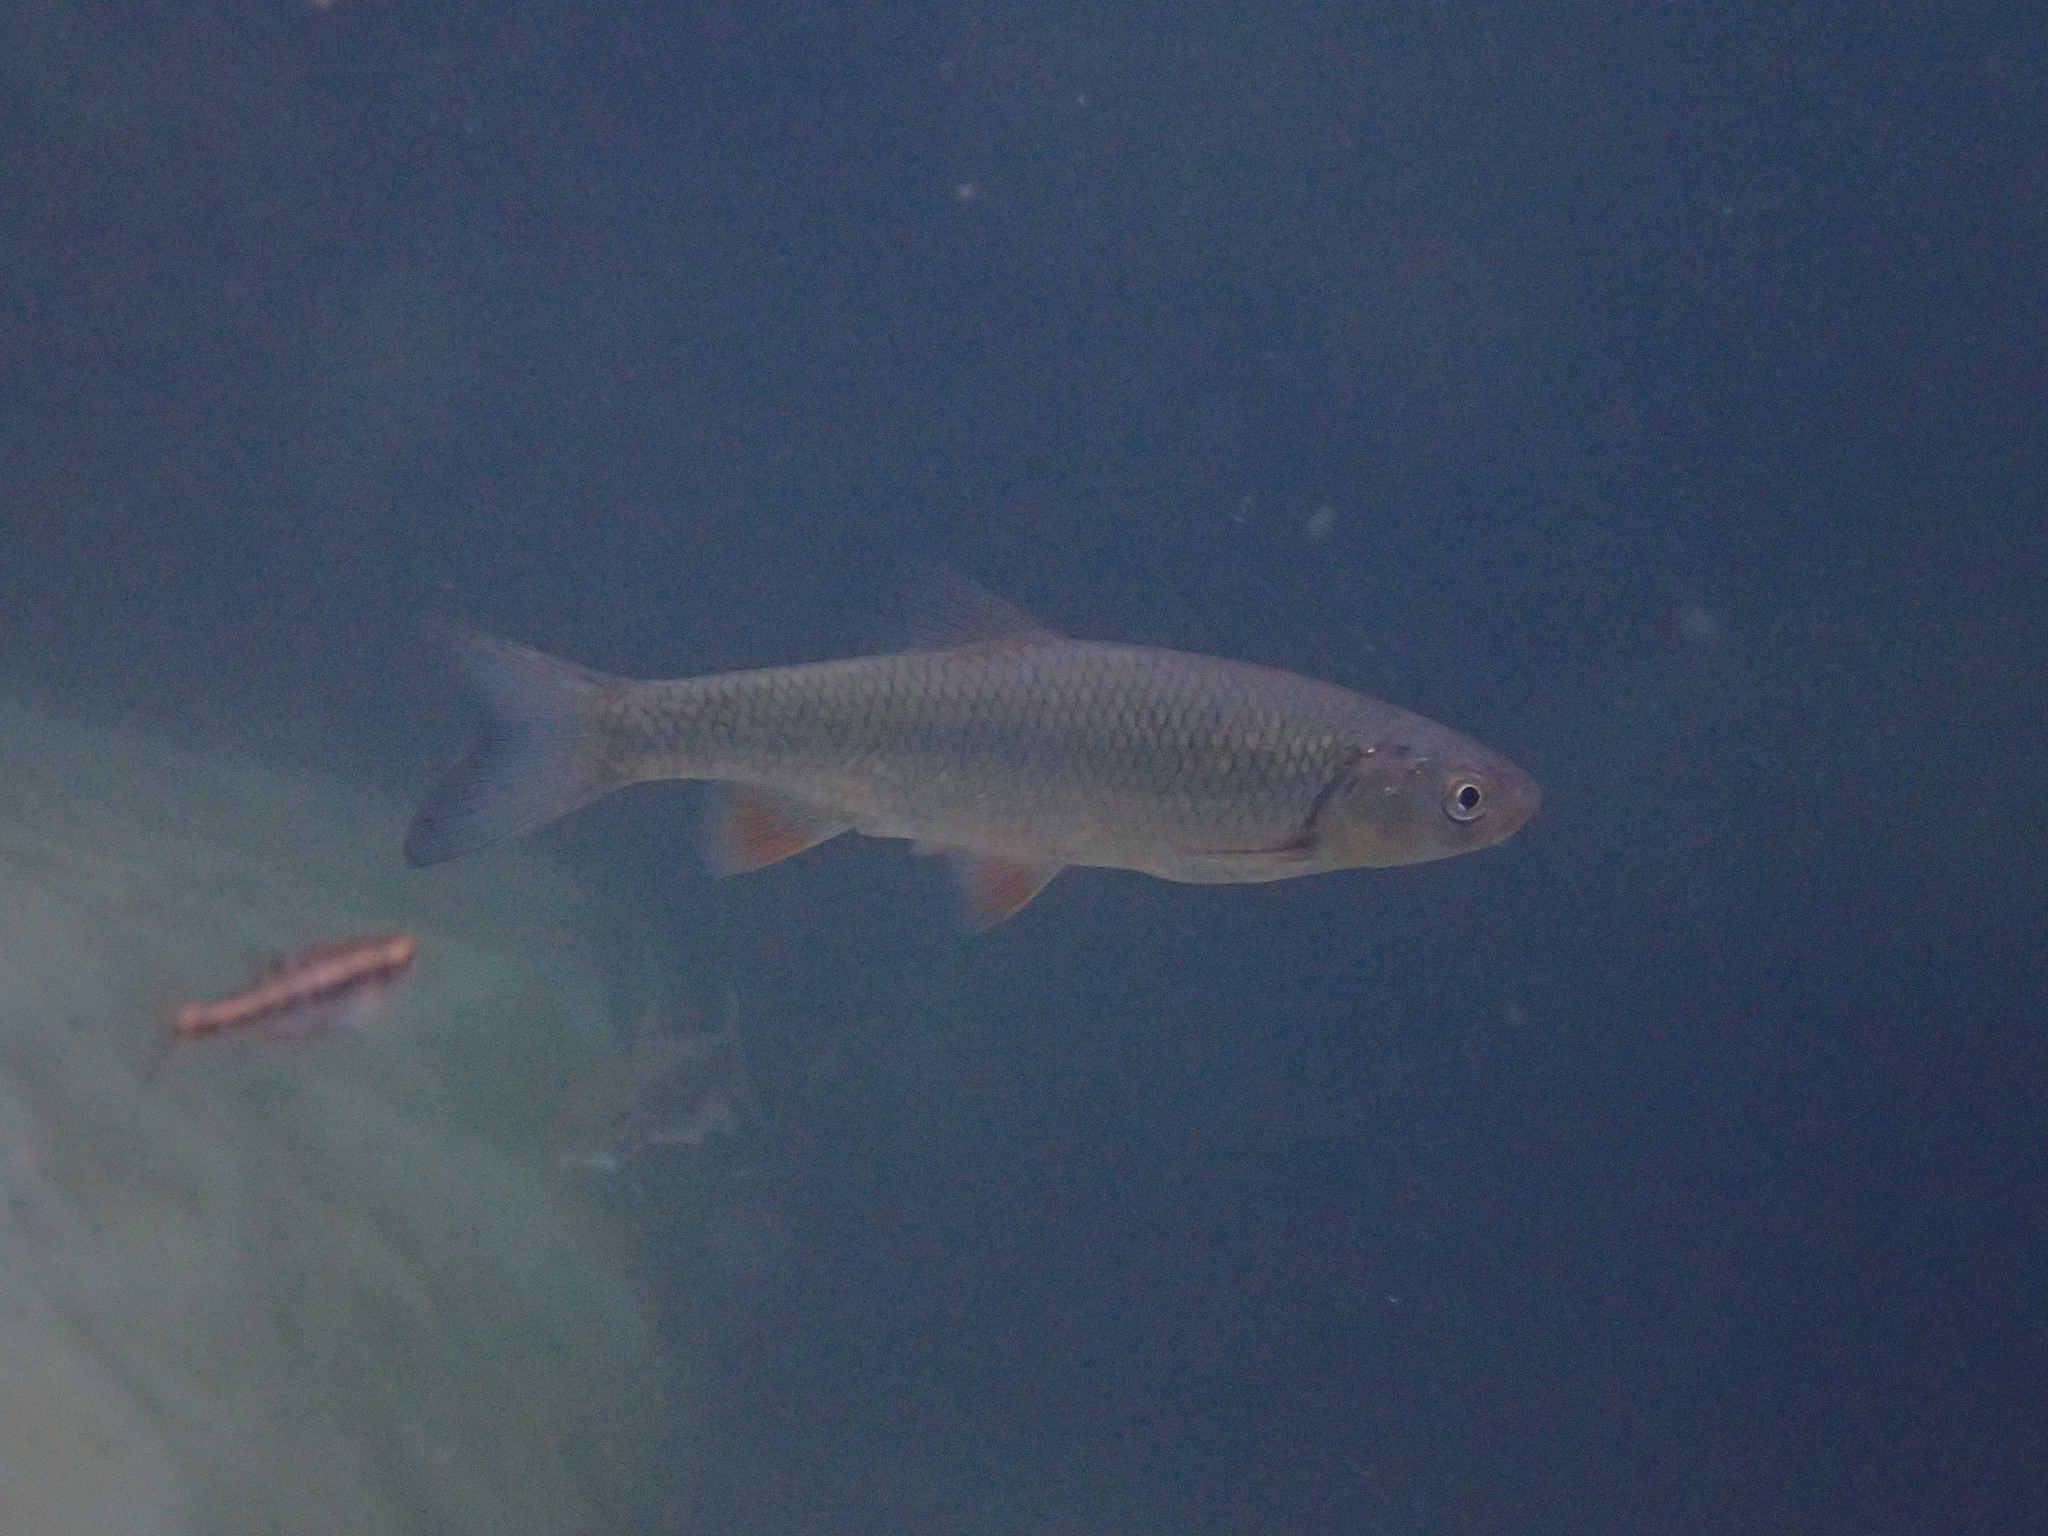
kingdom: Animalia
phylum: Chordata
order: Cypriniformes
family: Cyprinidae
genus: Squalius
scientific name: Squalius cephalus
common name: Chub
